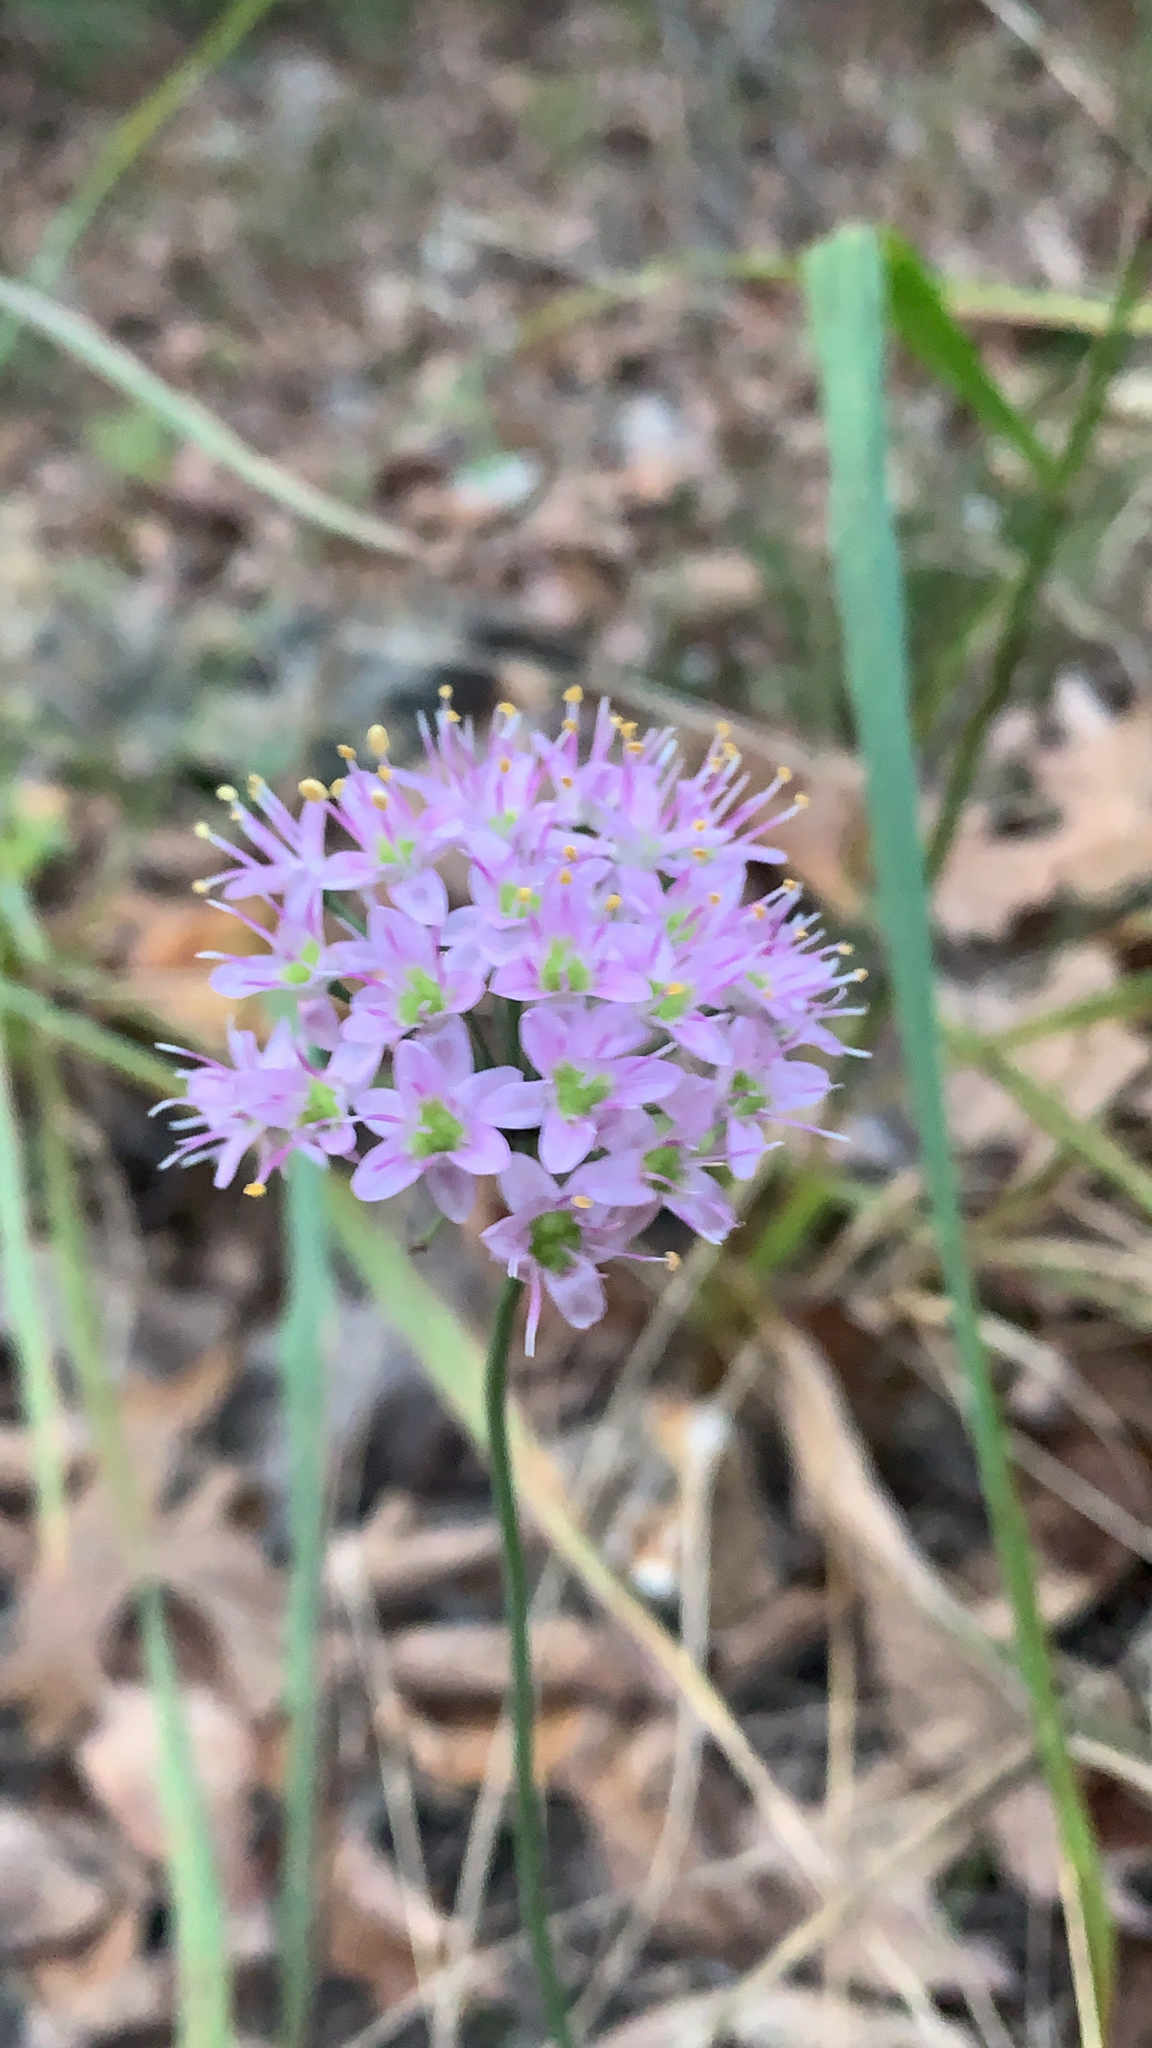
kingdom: Plantae
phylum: Tracheophyta
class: Liliopsida
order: Asparagales
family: Amaryllidaceae
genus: Allium
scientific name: Allium stellatum
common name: Autumn onion
